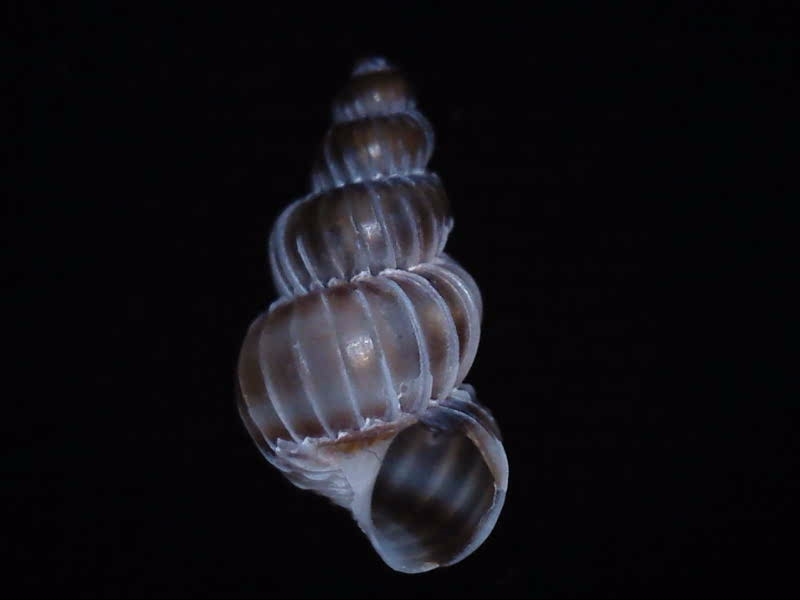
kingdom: Animalia
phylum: Mollusca
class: Gastropoda
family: Epitoniidae
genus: Epitonium
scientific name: Epitonium tenellum
